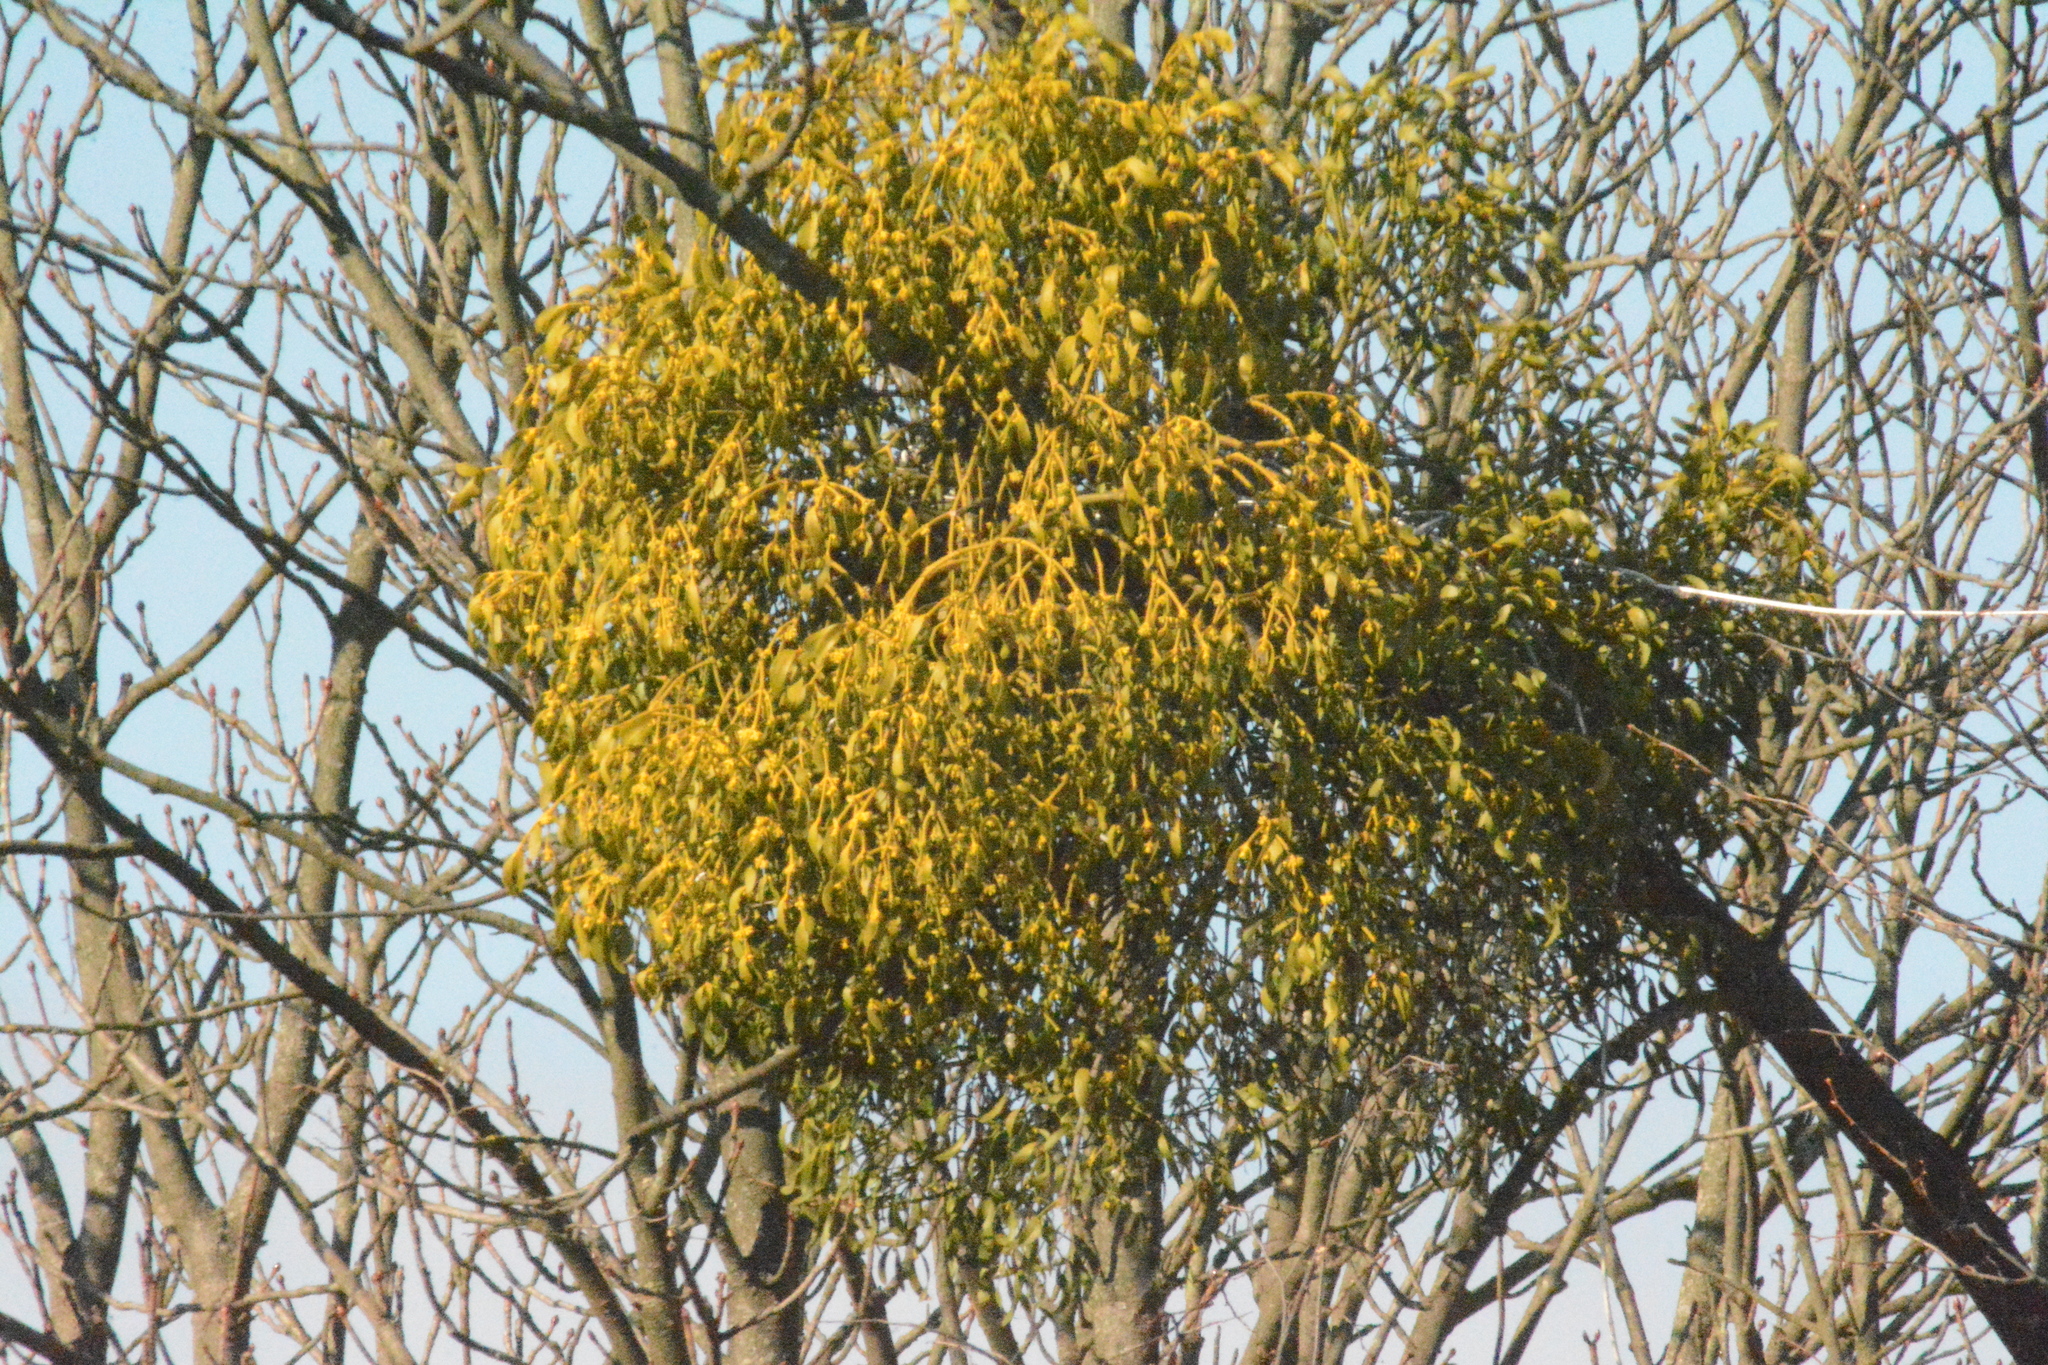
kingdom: Plantae
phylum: Tracheophyta
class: Magnoliopsida
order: Santalales
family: Viscaceae
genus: Viscum
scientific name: Viscum album
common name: Mistletoe
